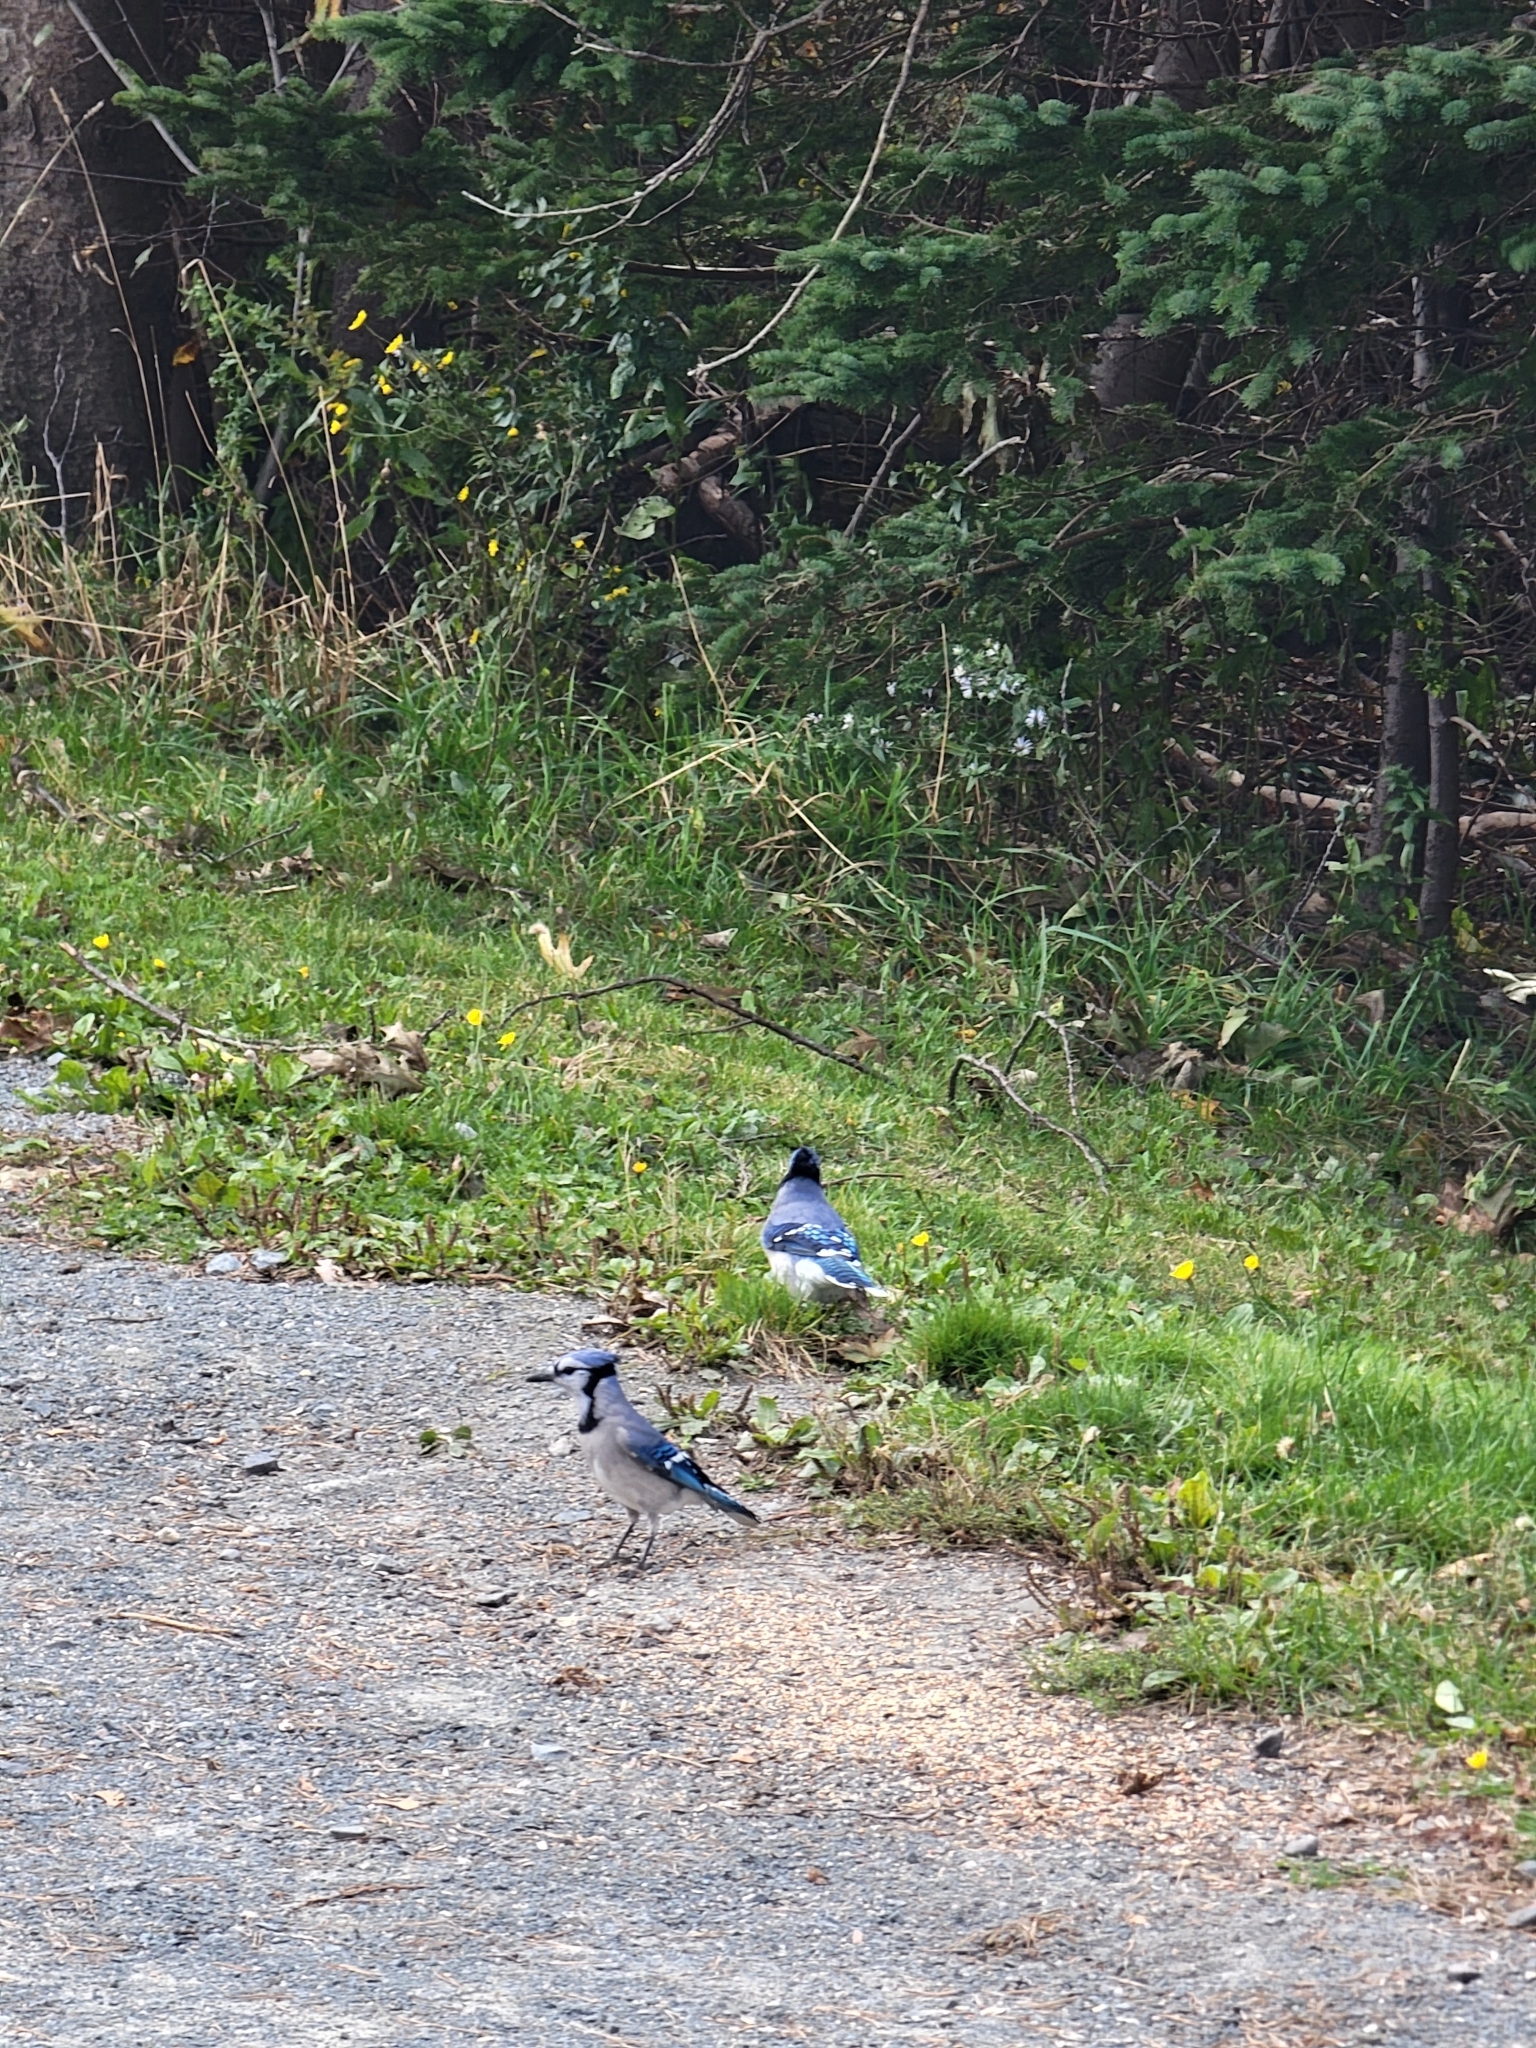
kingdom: Animalia
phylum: Chordata
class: Aves
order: Passeriformes
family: Corvidae
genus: Cyanocitta
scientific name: Cyanocitta cristata
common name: Blue jay
